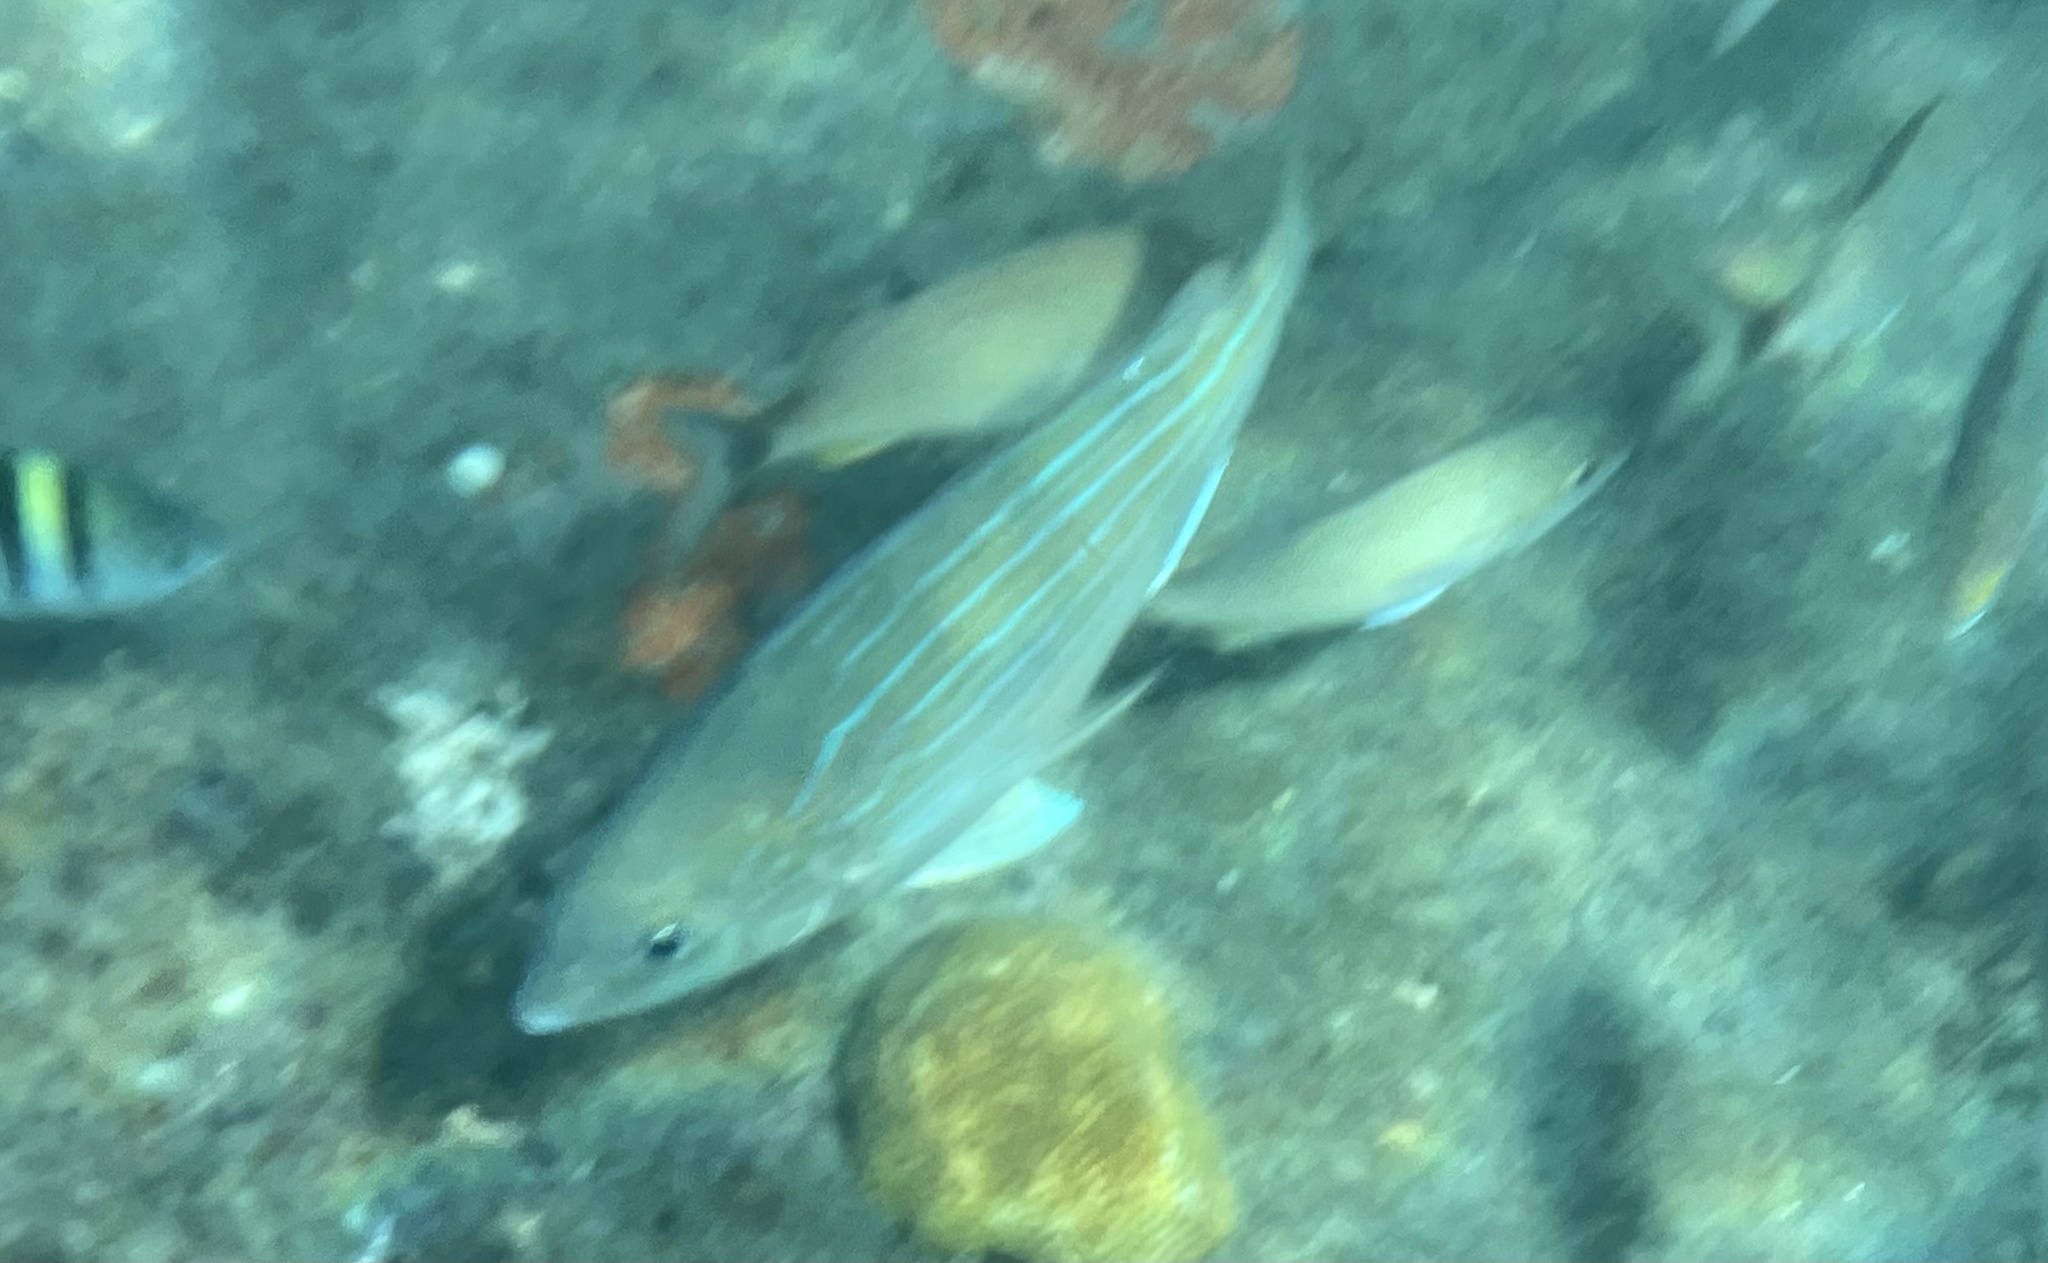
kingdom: Animalia
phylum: Chordata
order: Perciformes
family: Haemulidae
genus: Haemulon
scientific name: Haemulon sciurus
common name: Bluestriped grunt
